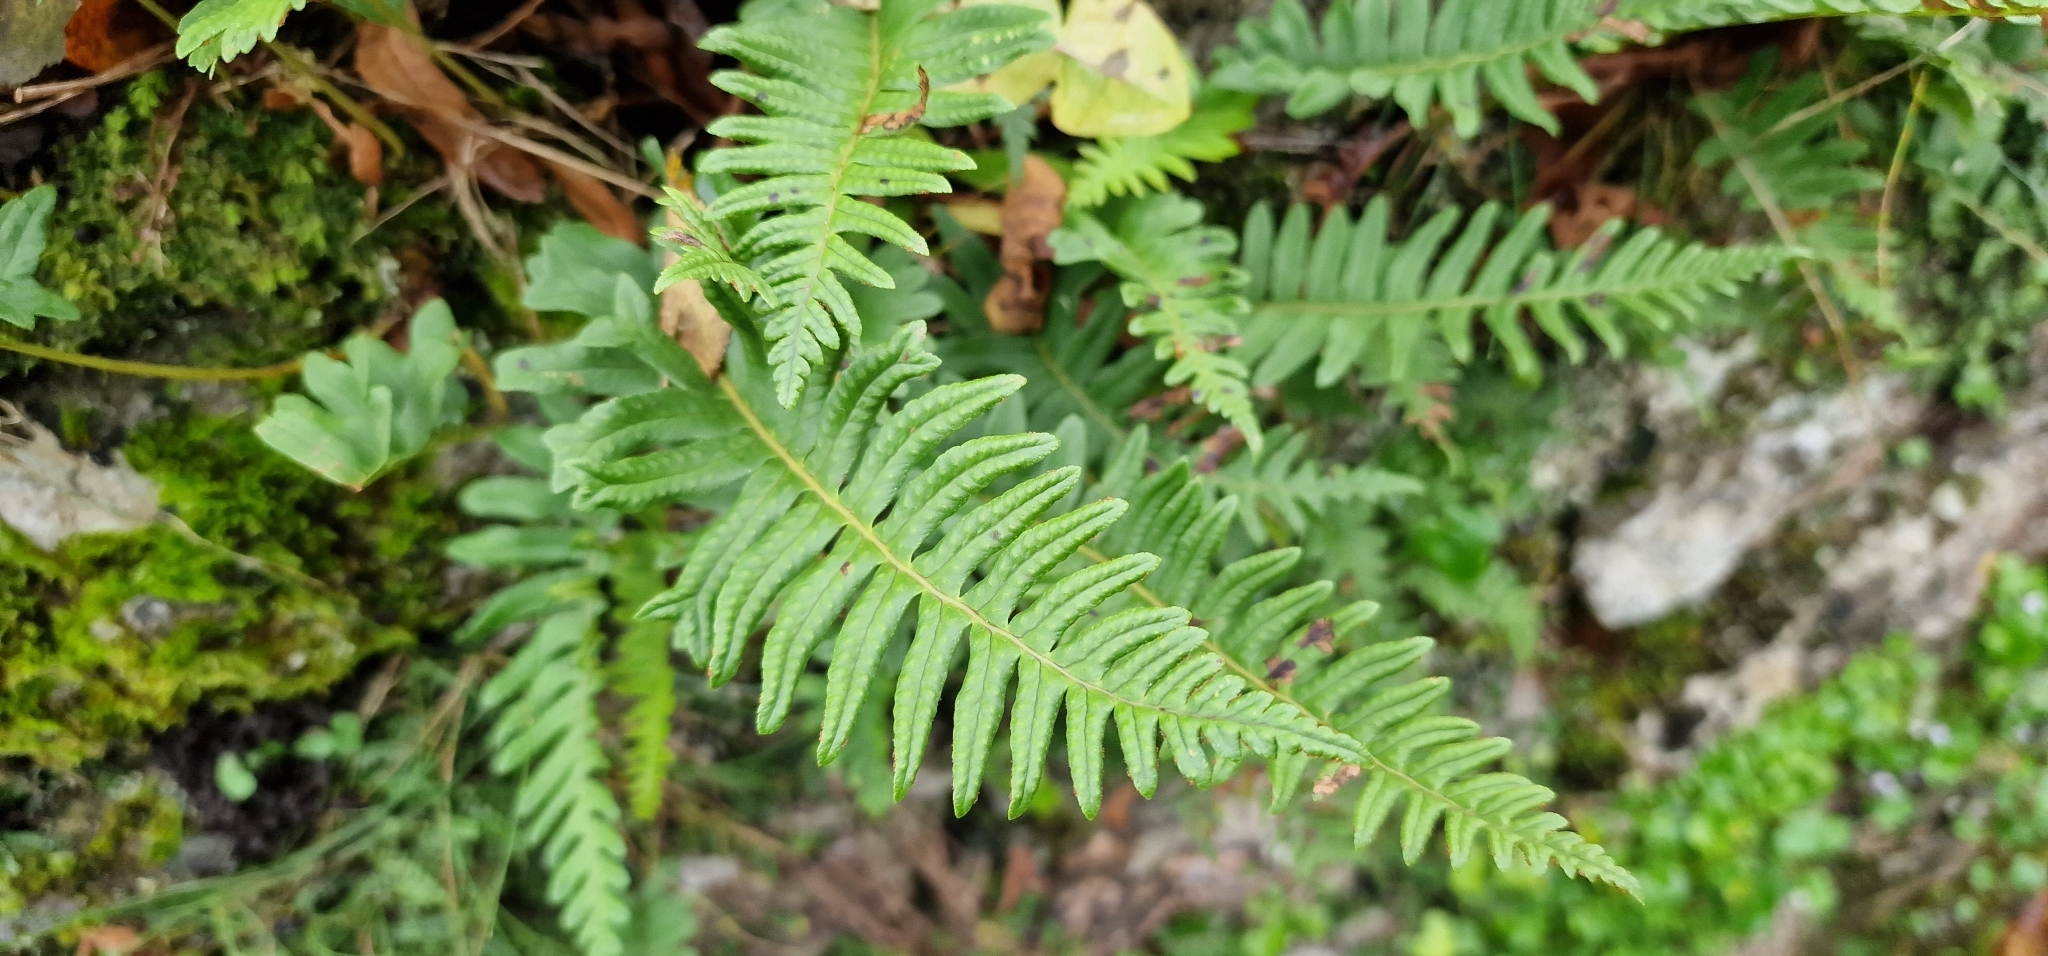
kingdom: Plantae
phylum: Tracheophyta
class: Polypodiopsida
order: Polypodiales
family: Polypodiaceae
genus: Polypodium
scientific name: Polypodium
